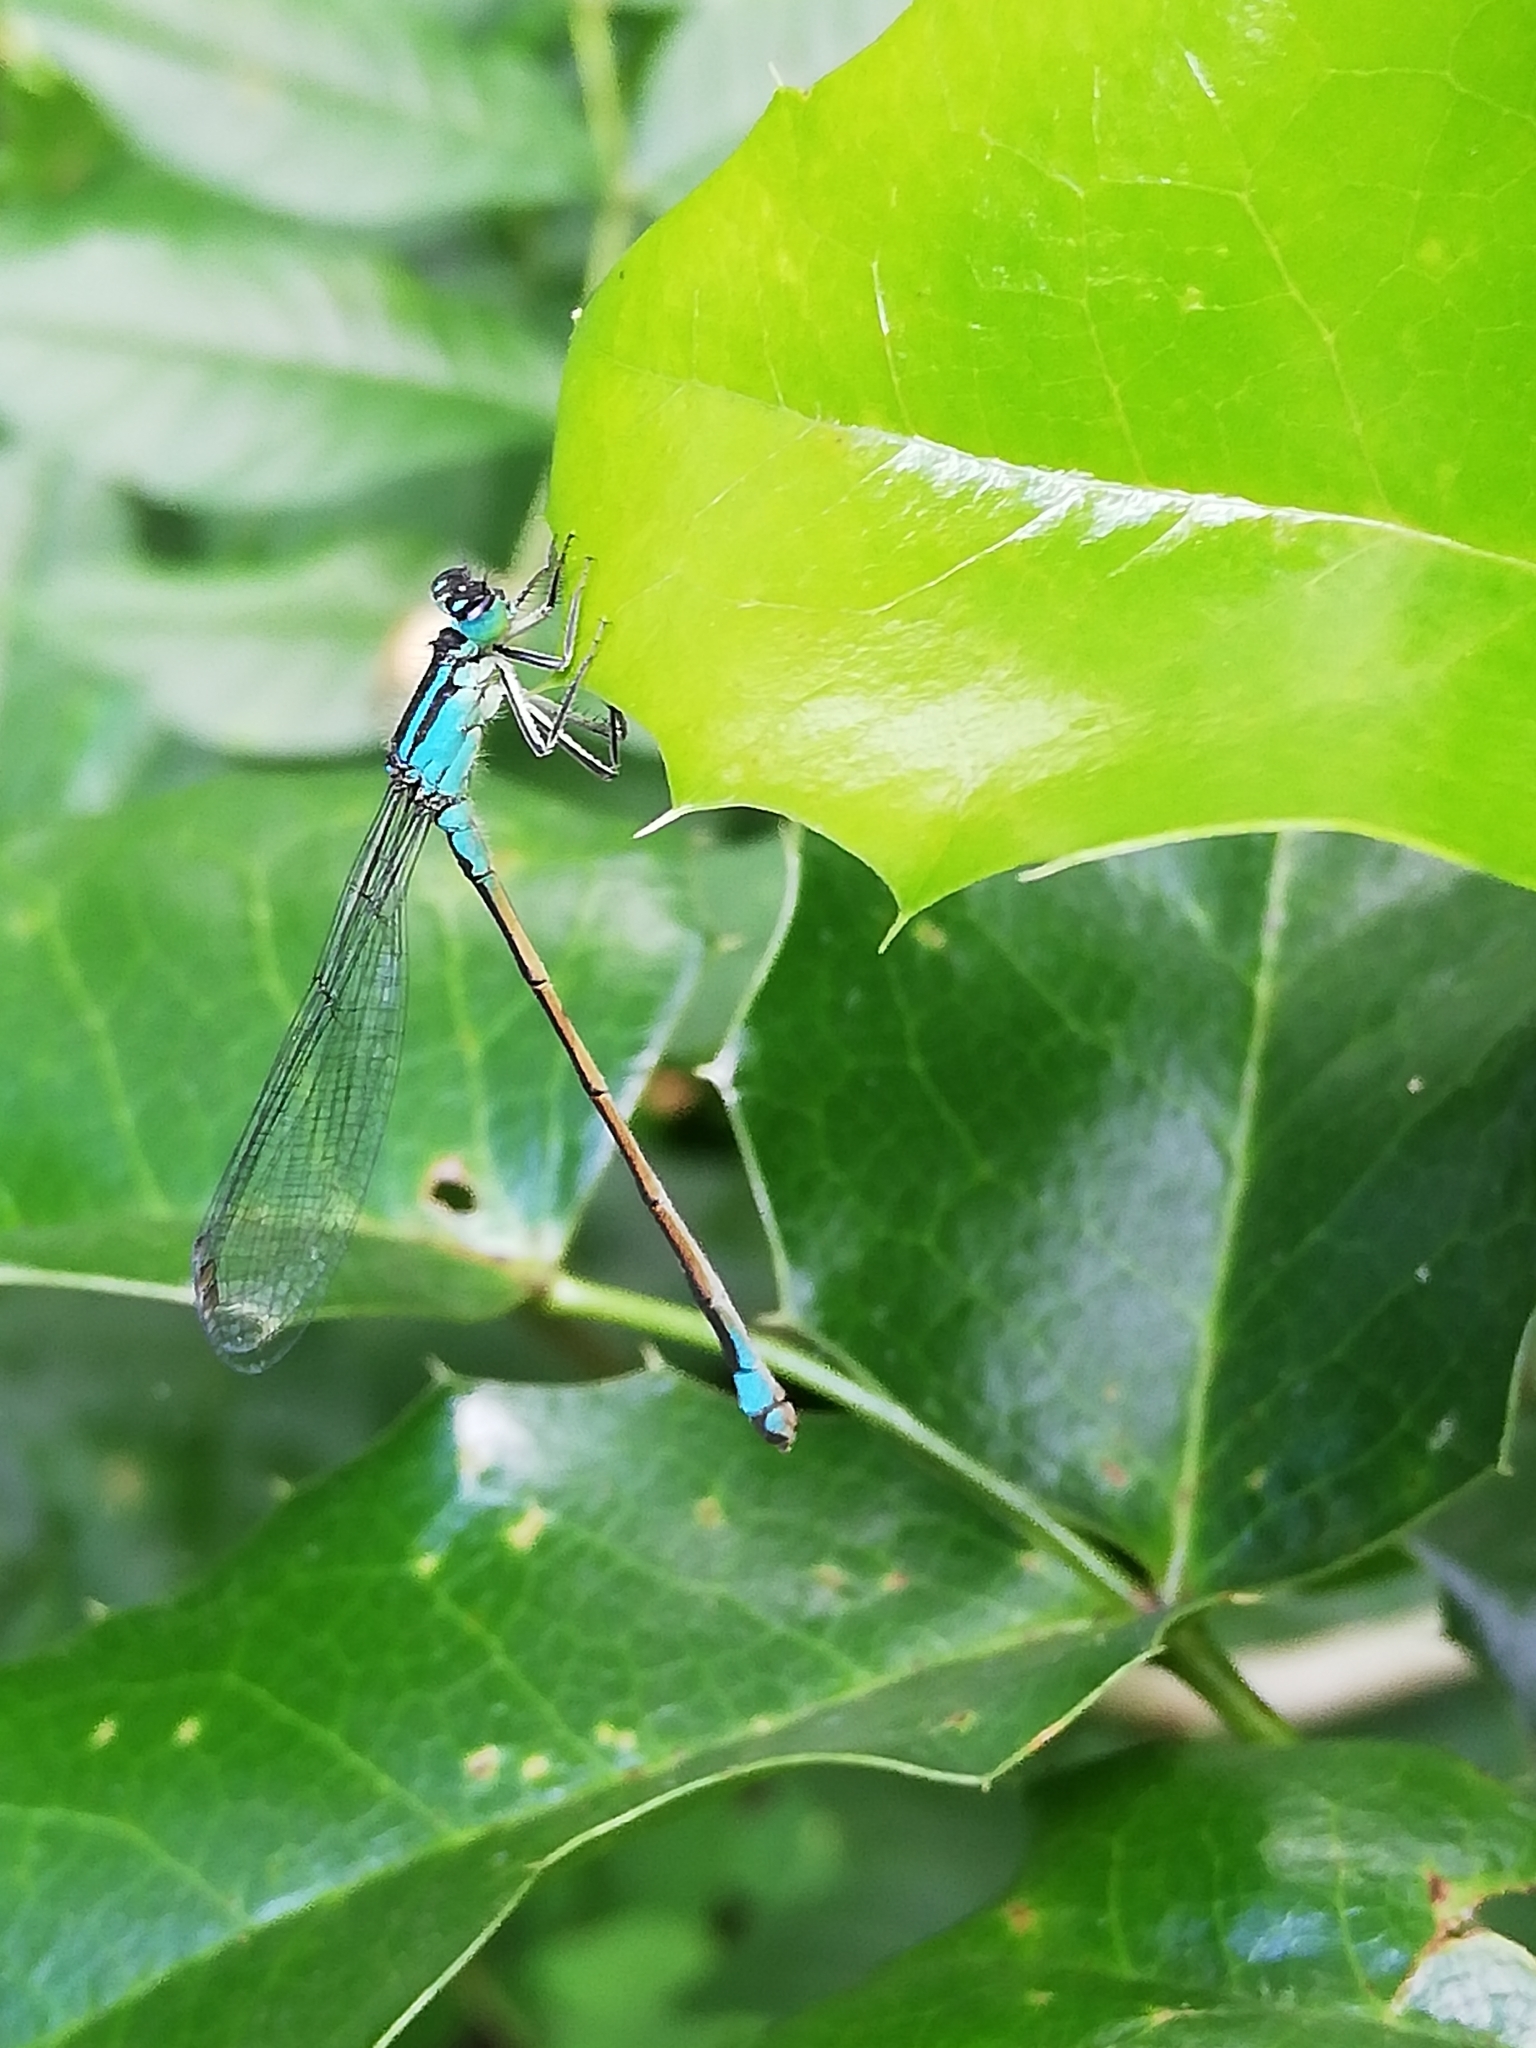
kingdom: Animalia
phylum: Arthropoda
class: Insecta
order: Odonata
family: Coenagrionidae
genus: Ischnura
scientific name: Ischnura elegans
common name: Blue-tailed damselfly
